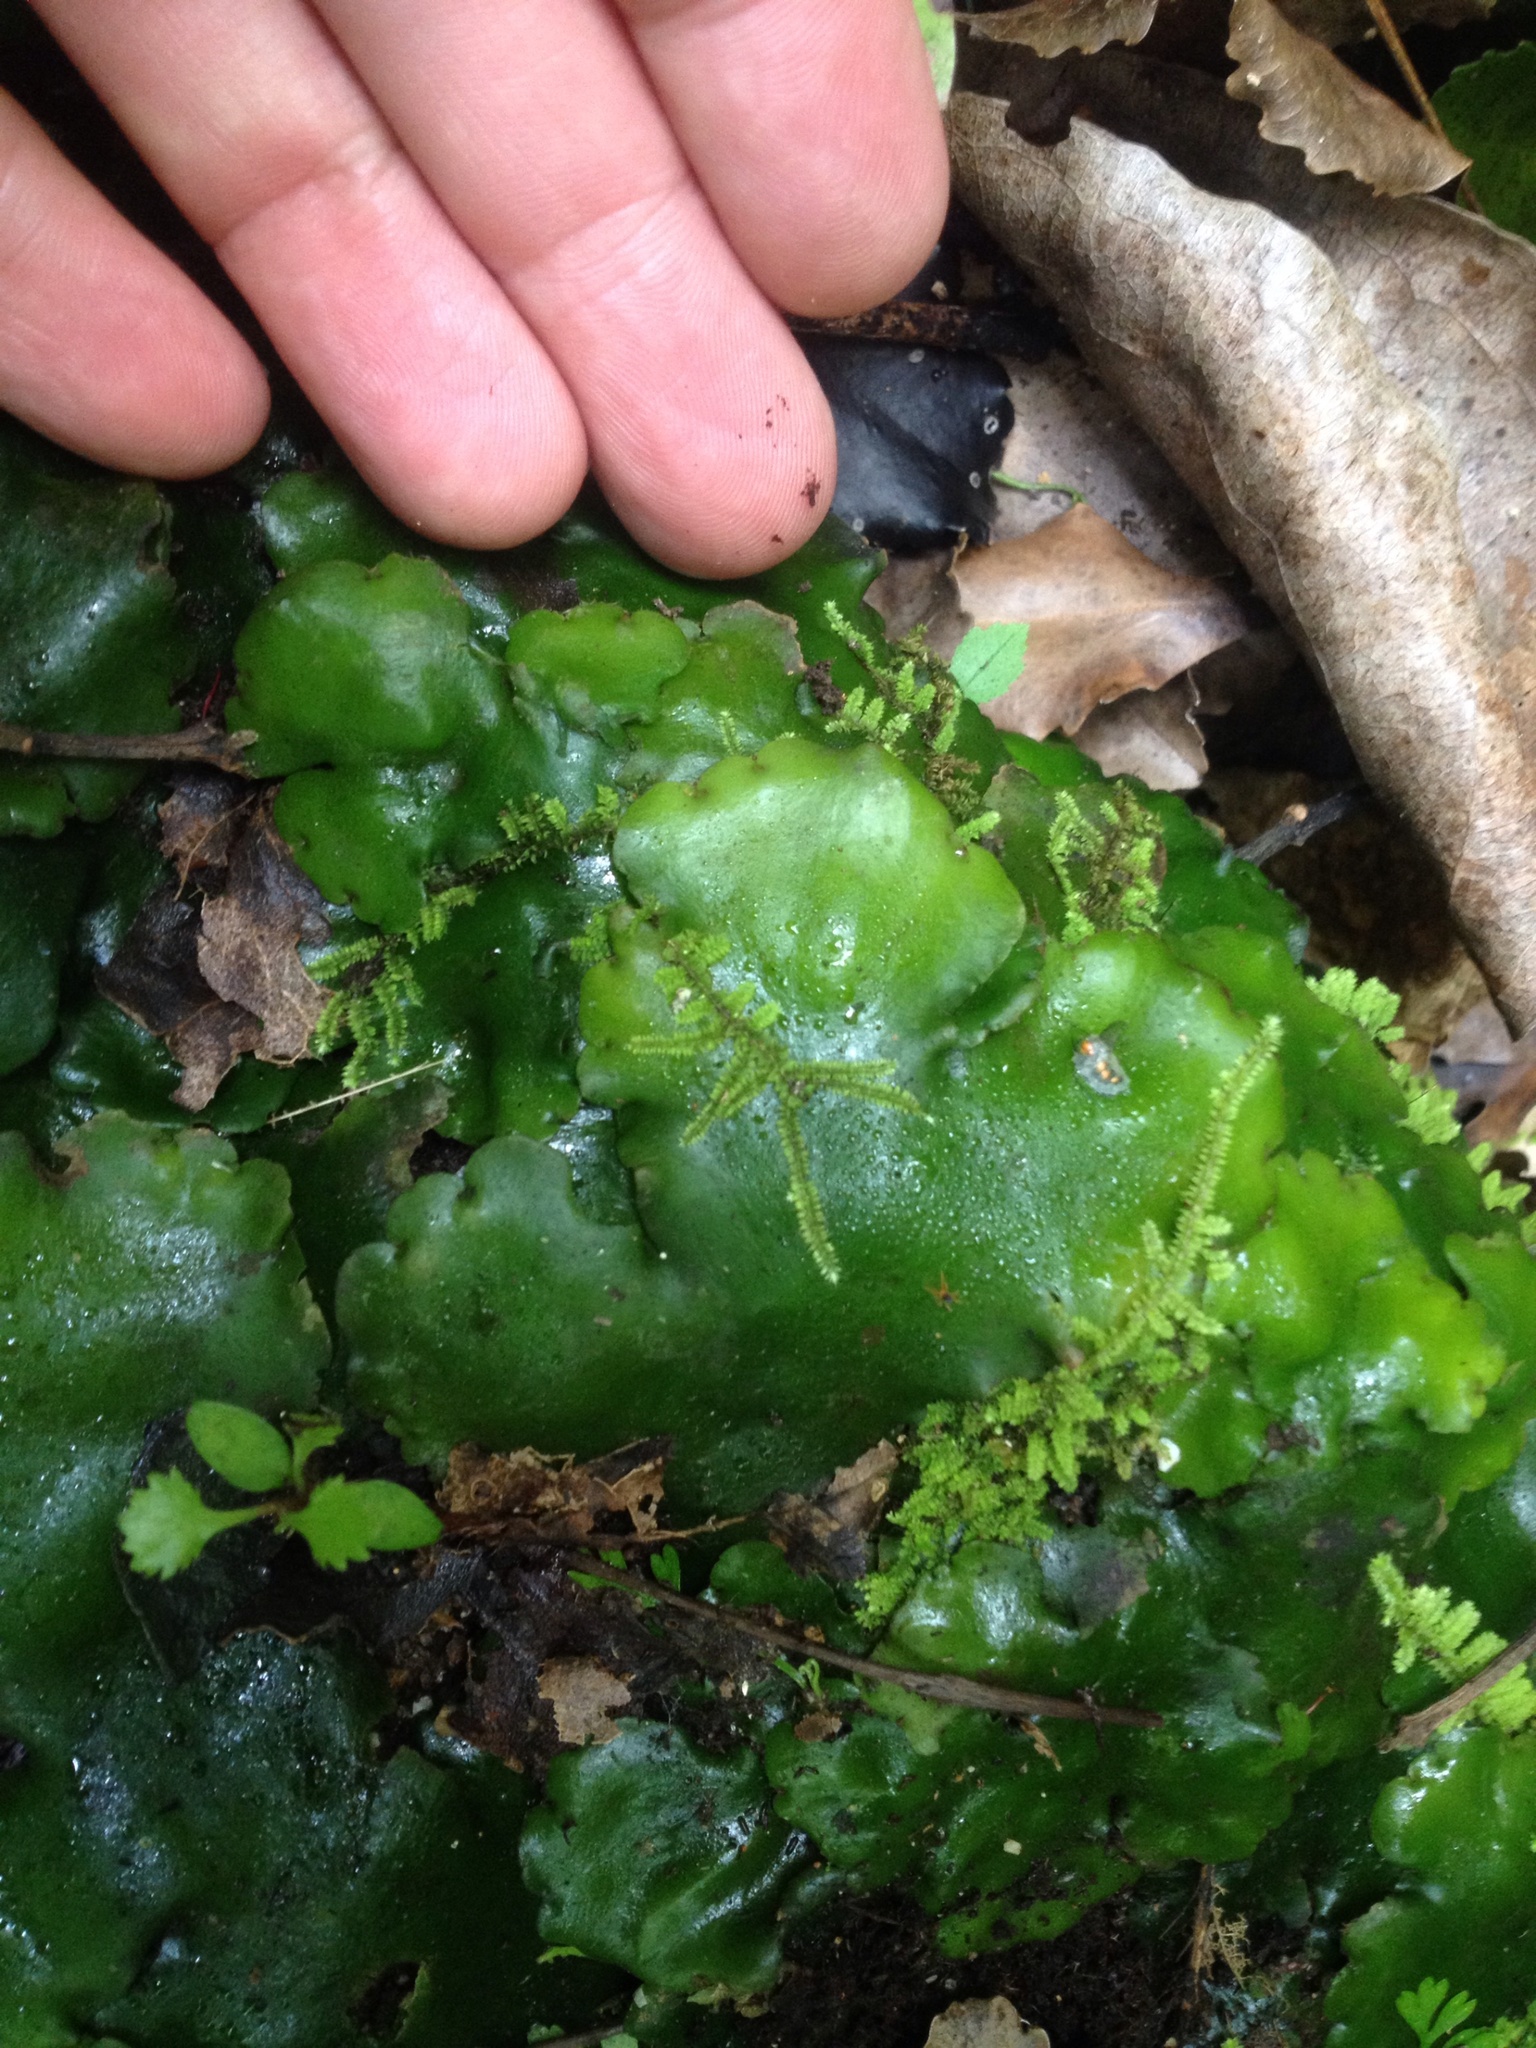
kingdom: Plantae
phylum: Marchantiophyta
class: Marchantiopsida
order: Marchantiales
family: Monocleaceae
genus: Monoclea
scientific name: Monoclea forsteri
